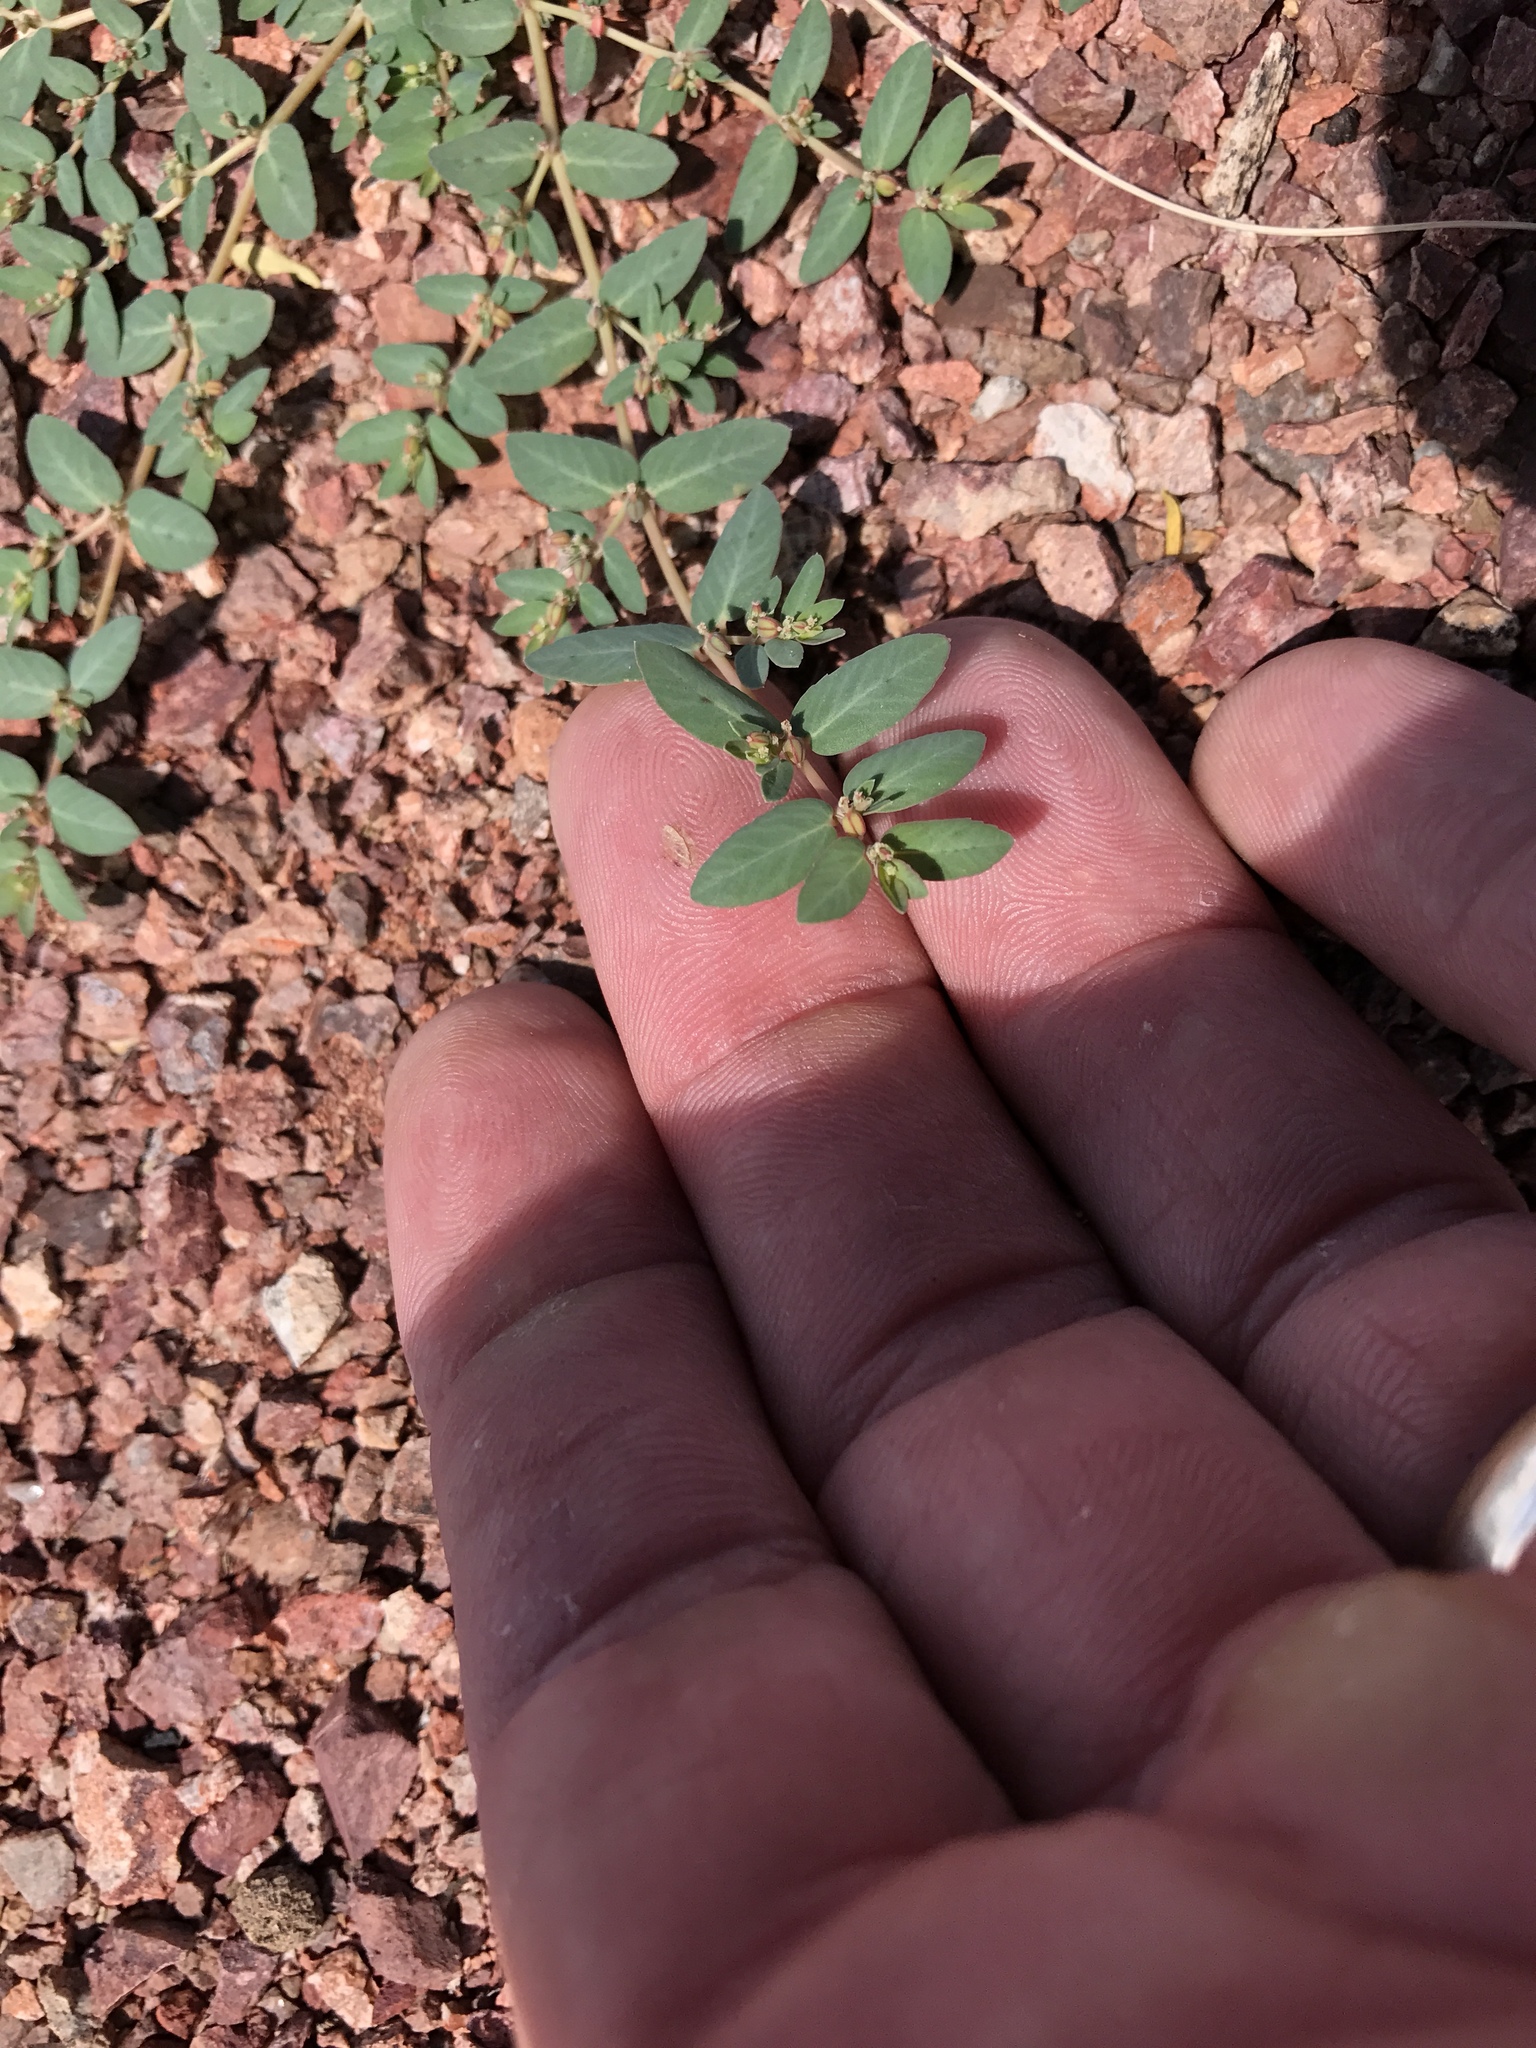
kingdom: Plantae
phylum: Tracheophyta
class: Magnoliopsida
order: Malpighiales
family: Euphorbiaceae
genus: Euphorbia
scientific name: Euphorbia abramsiana
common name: Abram's spurge
